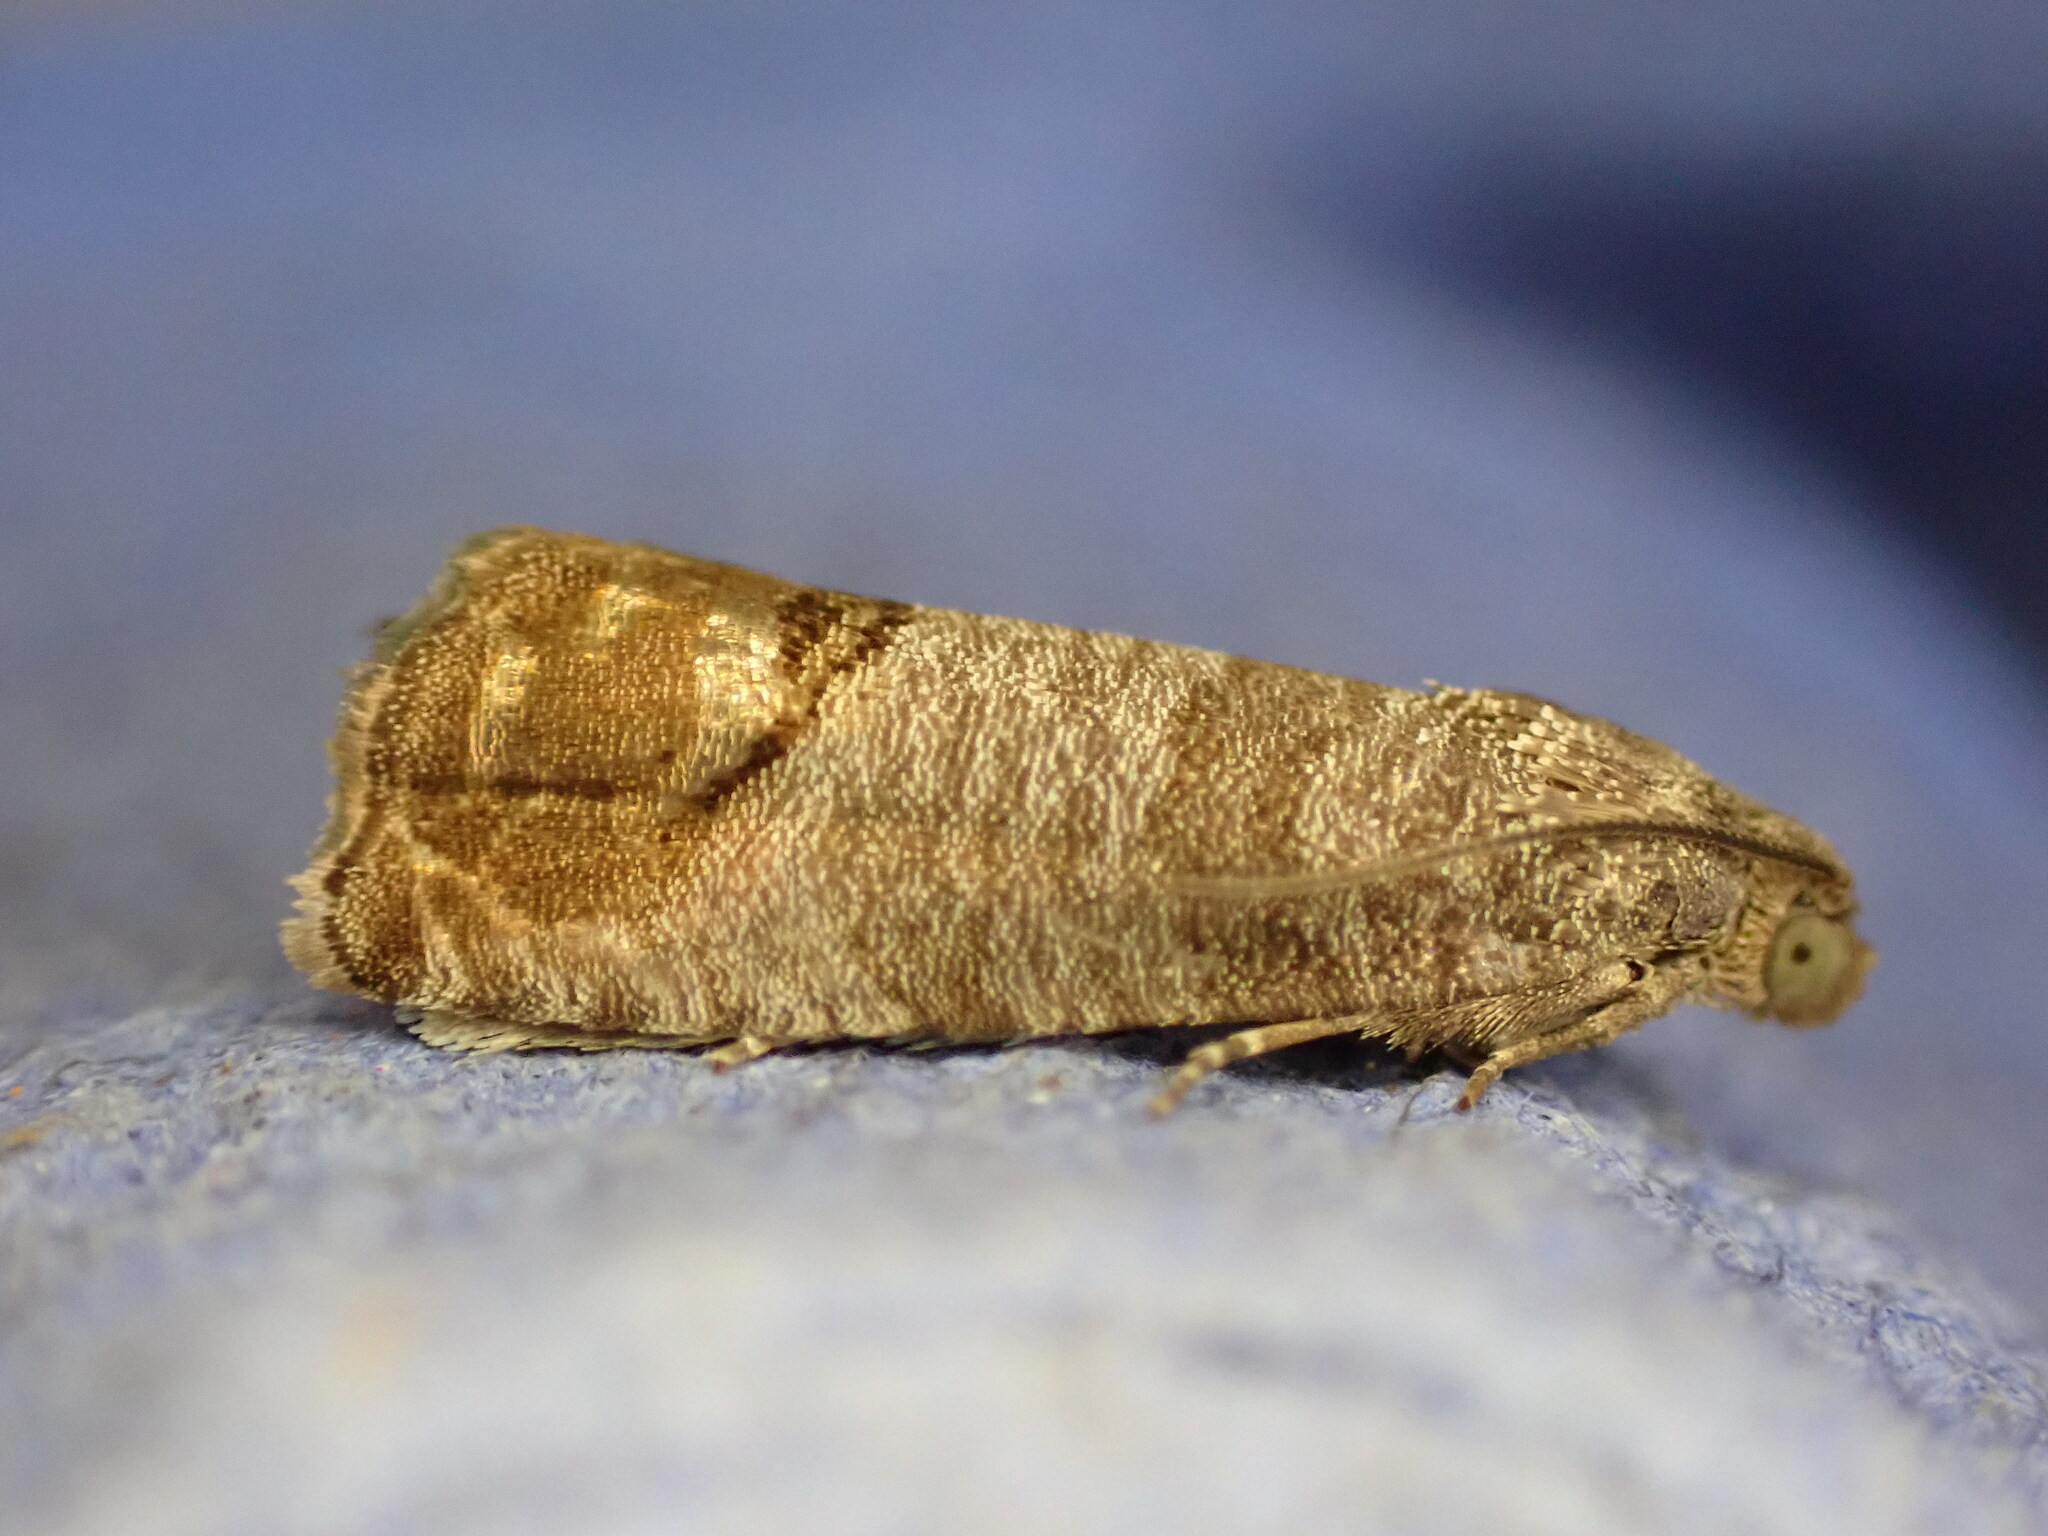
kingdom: Animalia
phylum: Arthropoda
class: Insecta
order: Lepidoptera
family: Tortricidae
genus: Cydia
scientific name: Cydia pomonella
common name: Codling moth
